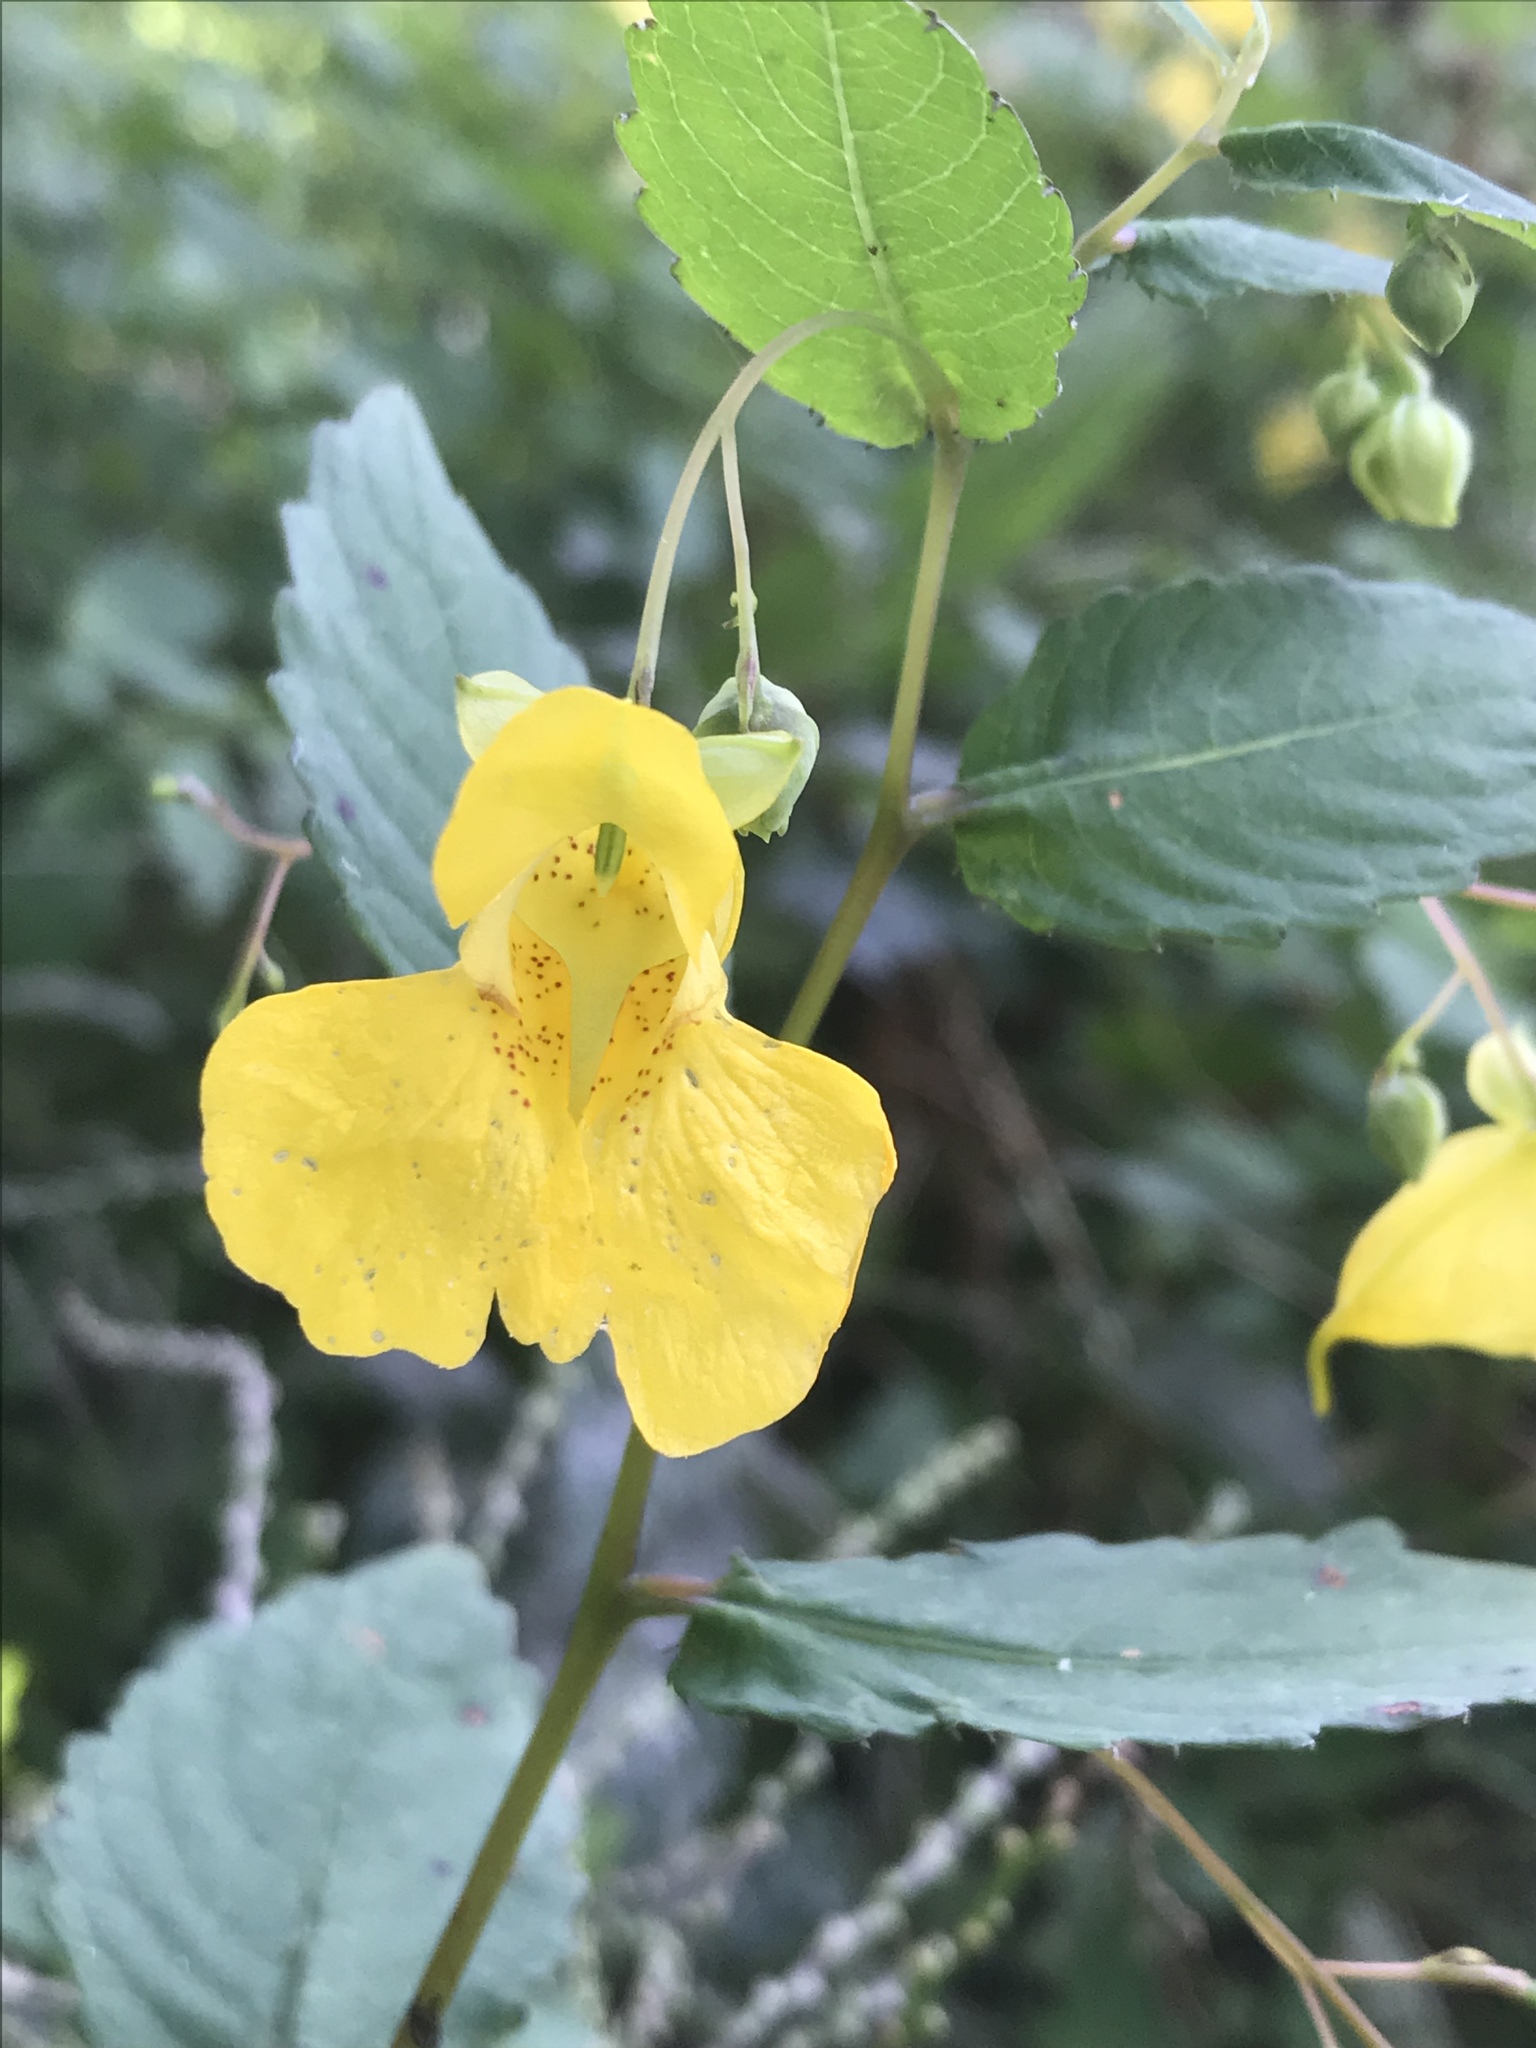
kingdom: Plantae
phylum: Tracheophyta
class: Magnoliopsida
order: Ericales
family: Balsaminaceae
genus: Impatiens
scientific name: Impatiens pallida
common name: Pale snapweed
